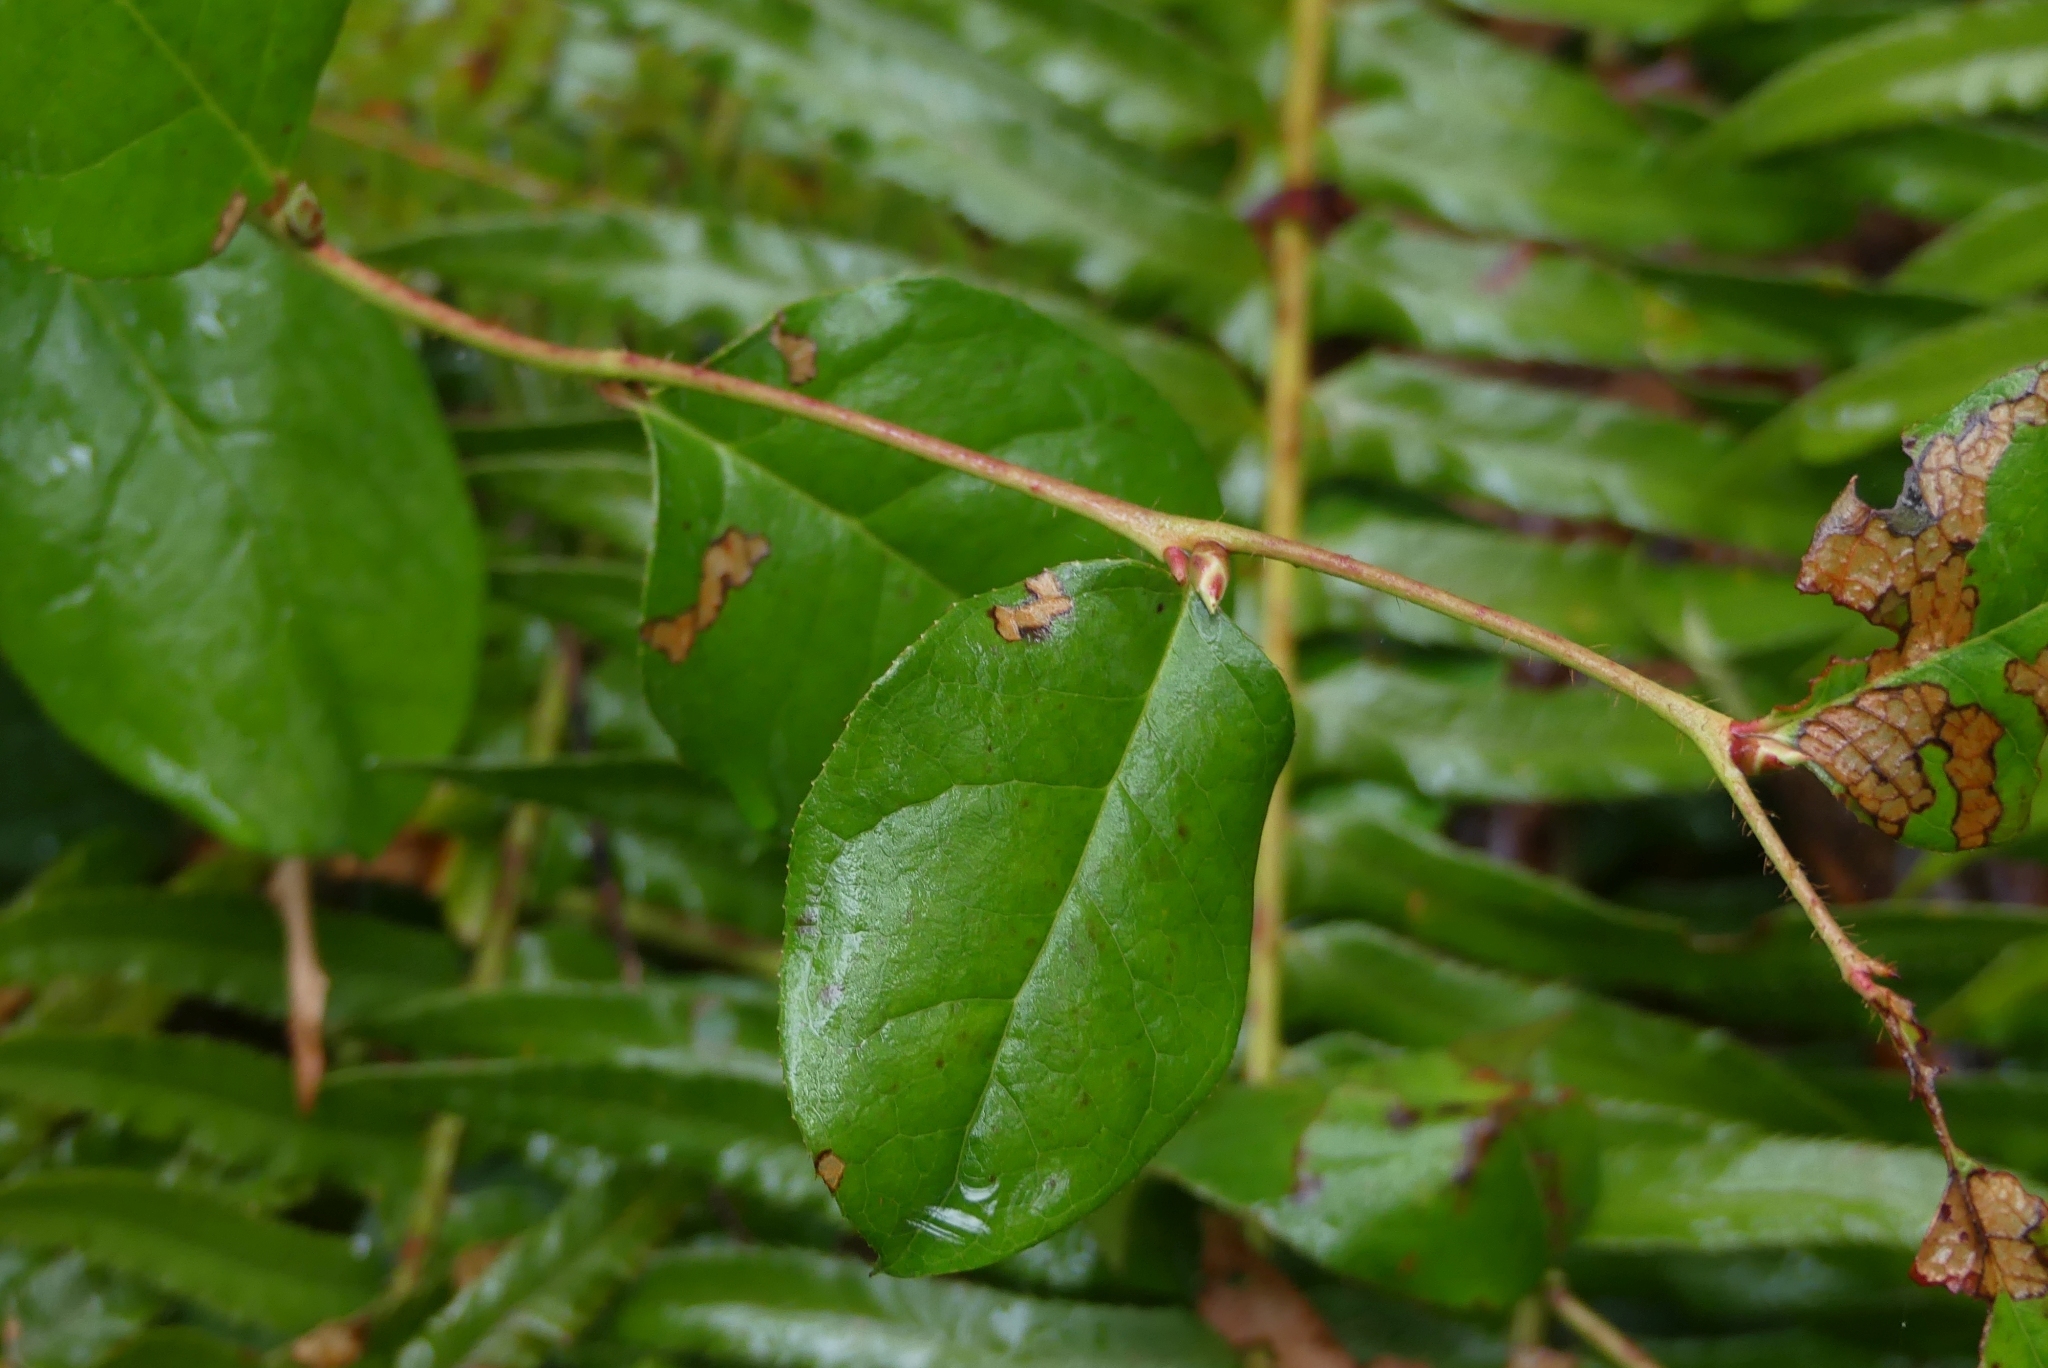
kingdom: Plantae
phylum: Tracheophyta
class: Magnoliopsida
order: Ericales
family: Ericaceae
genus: Gaultheria
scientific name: Gaultheria shallon
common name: Shallon
